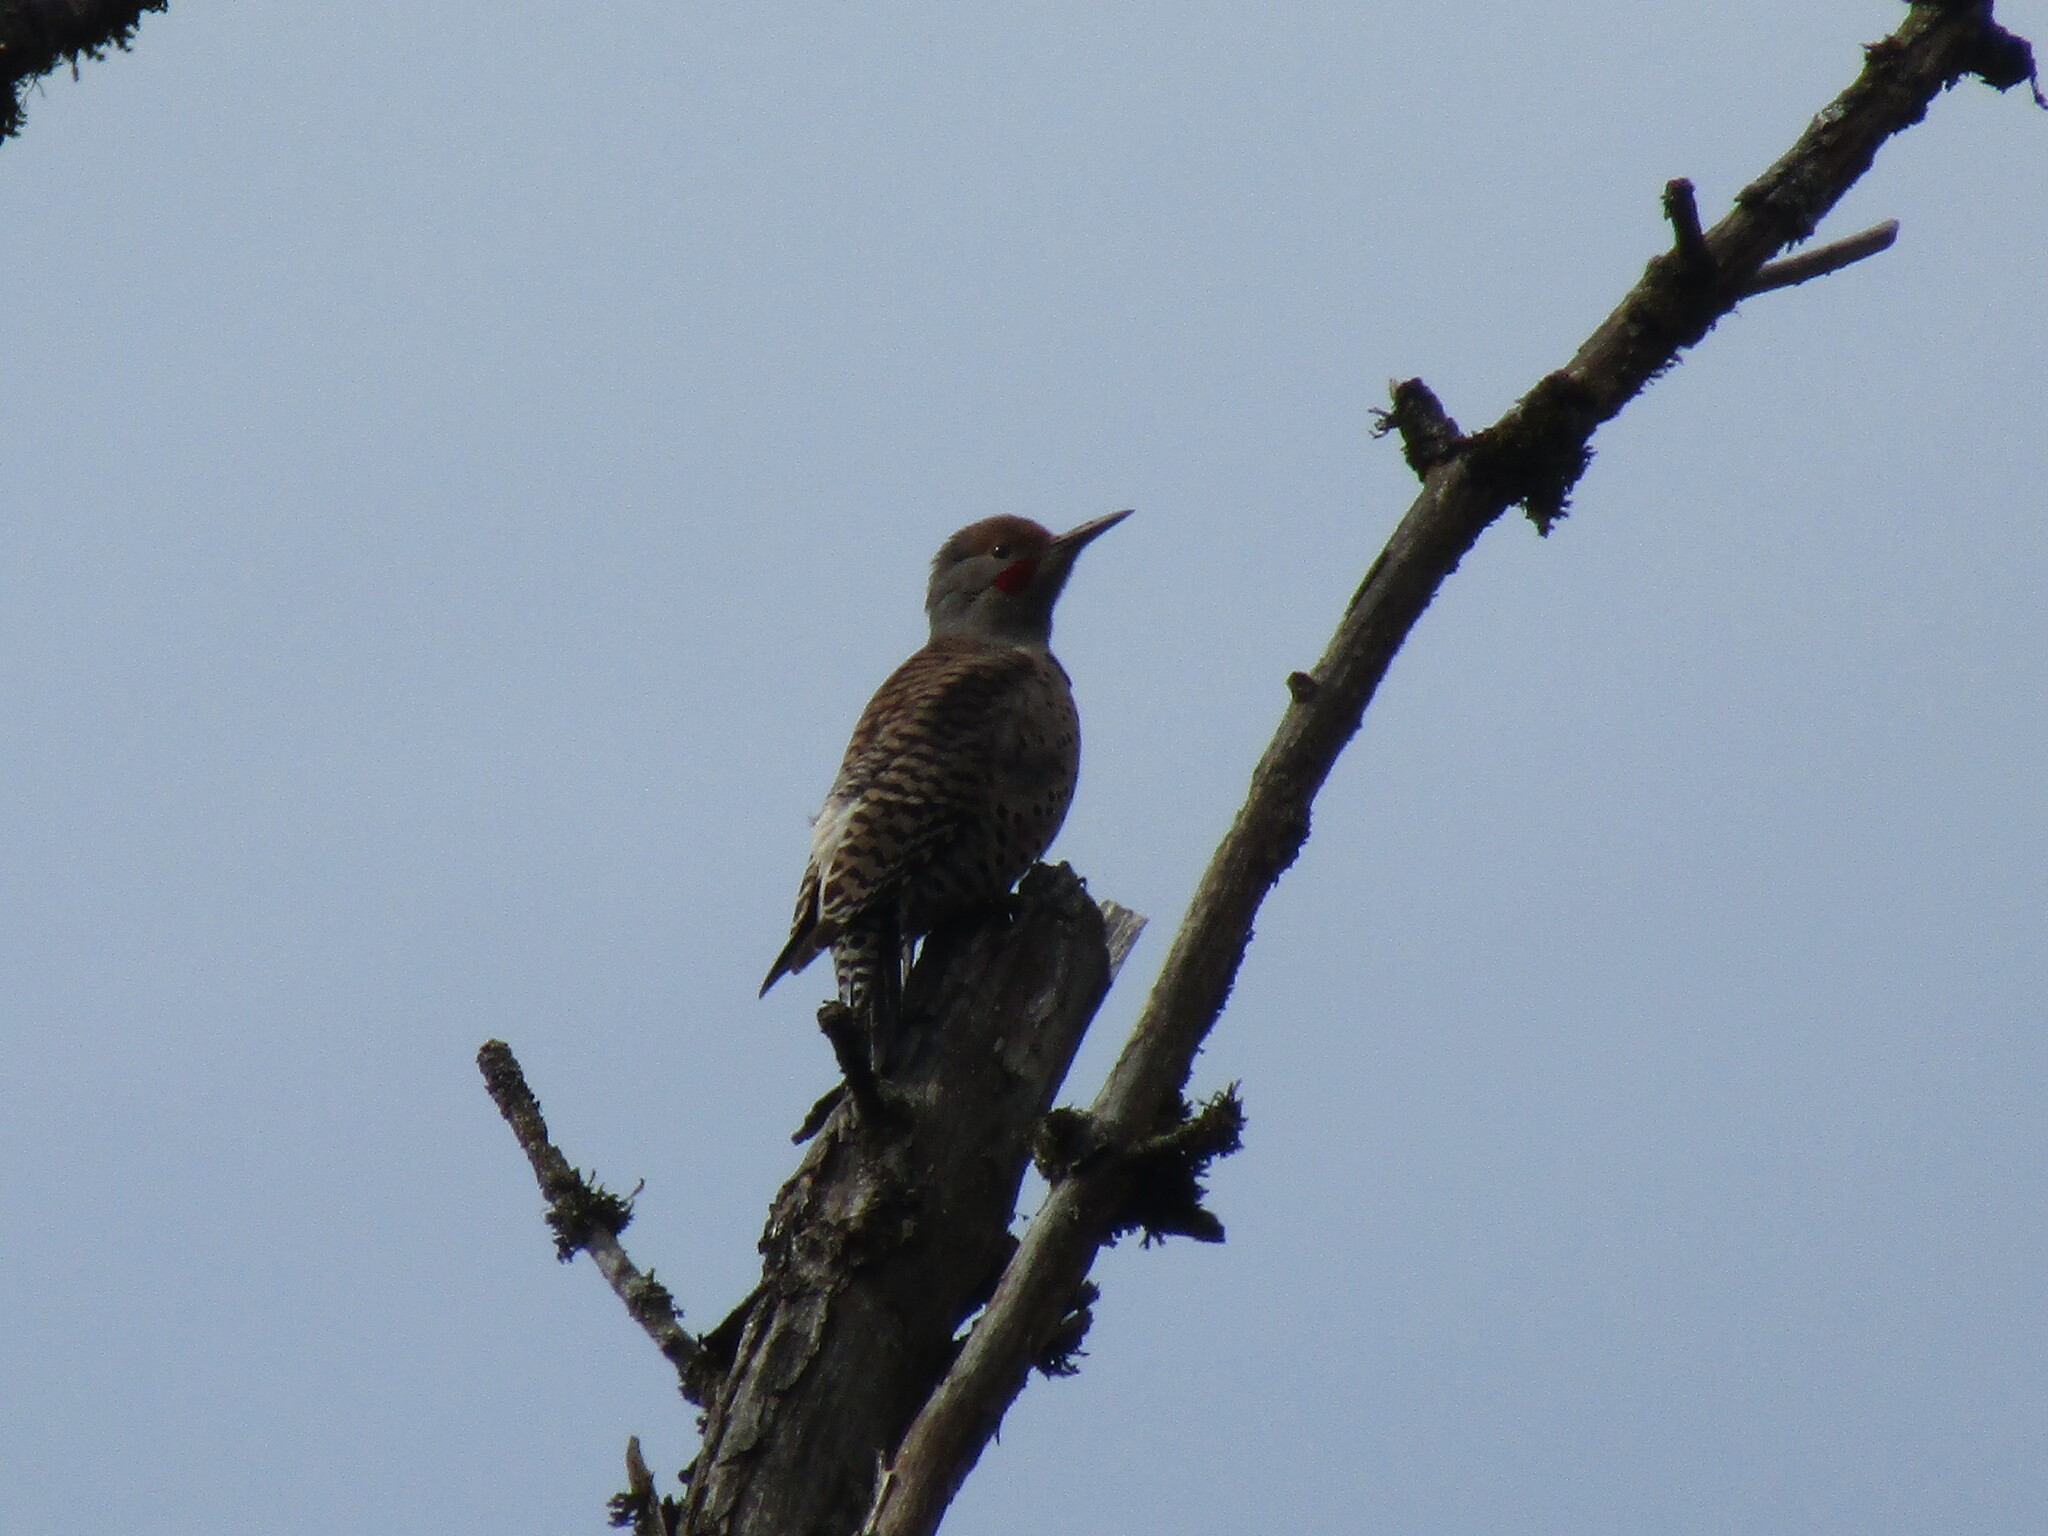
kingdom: Animalia
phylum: Chordata
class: Aves
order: Piciformes
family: Picidae
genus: Colaptes
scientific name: Colaptes auratus
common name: Northern flicker
